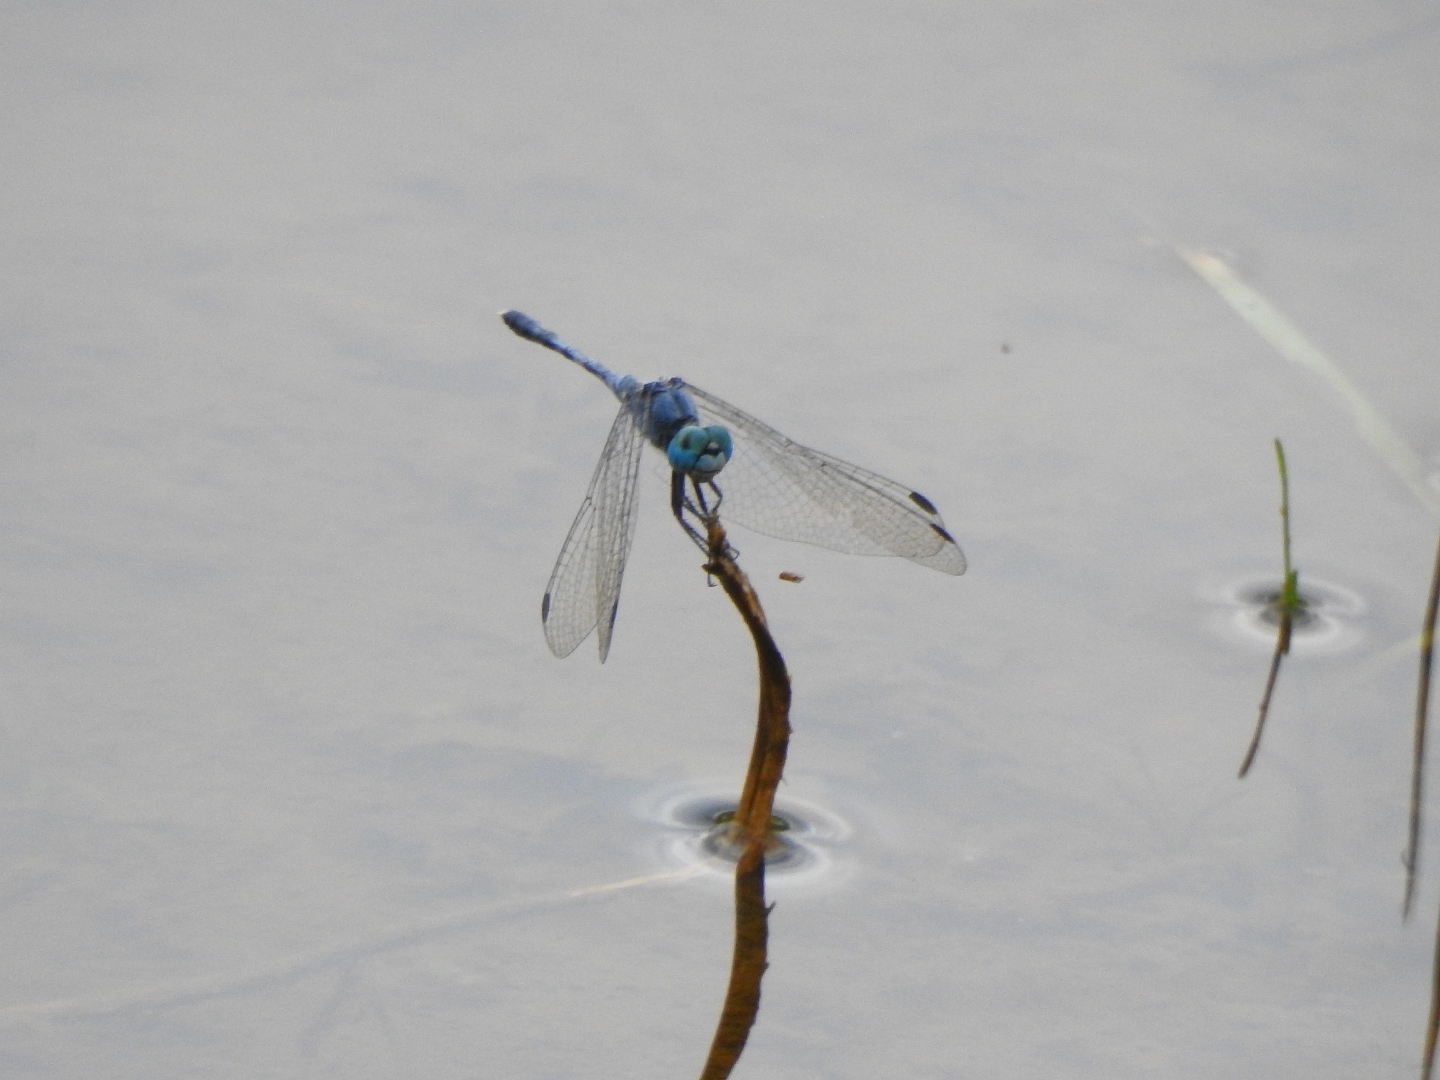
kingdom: Animalia
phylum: Arthropoda
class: Insecta
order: Odonata
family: Libellulidae
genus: Diplacodes
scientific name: Diplacodes trivialis
